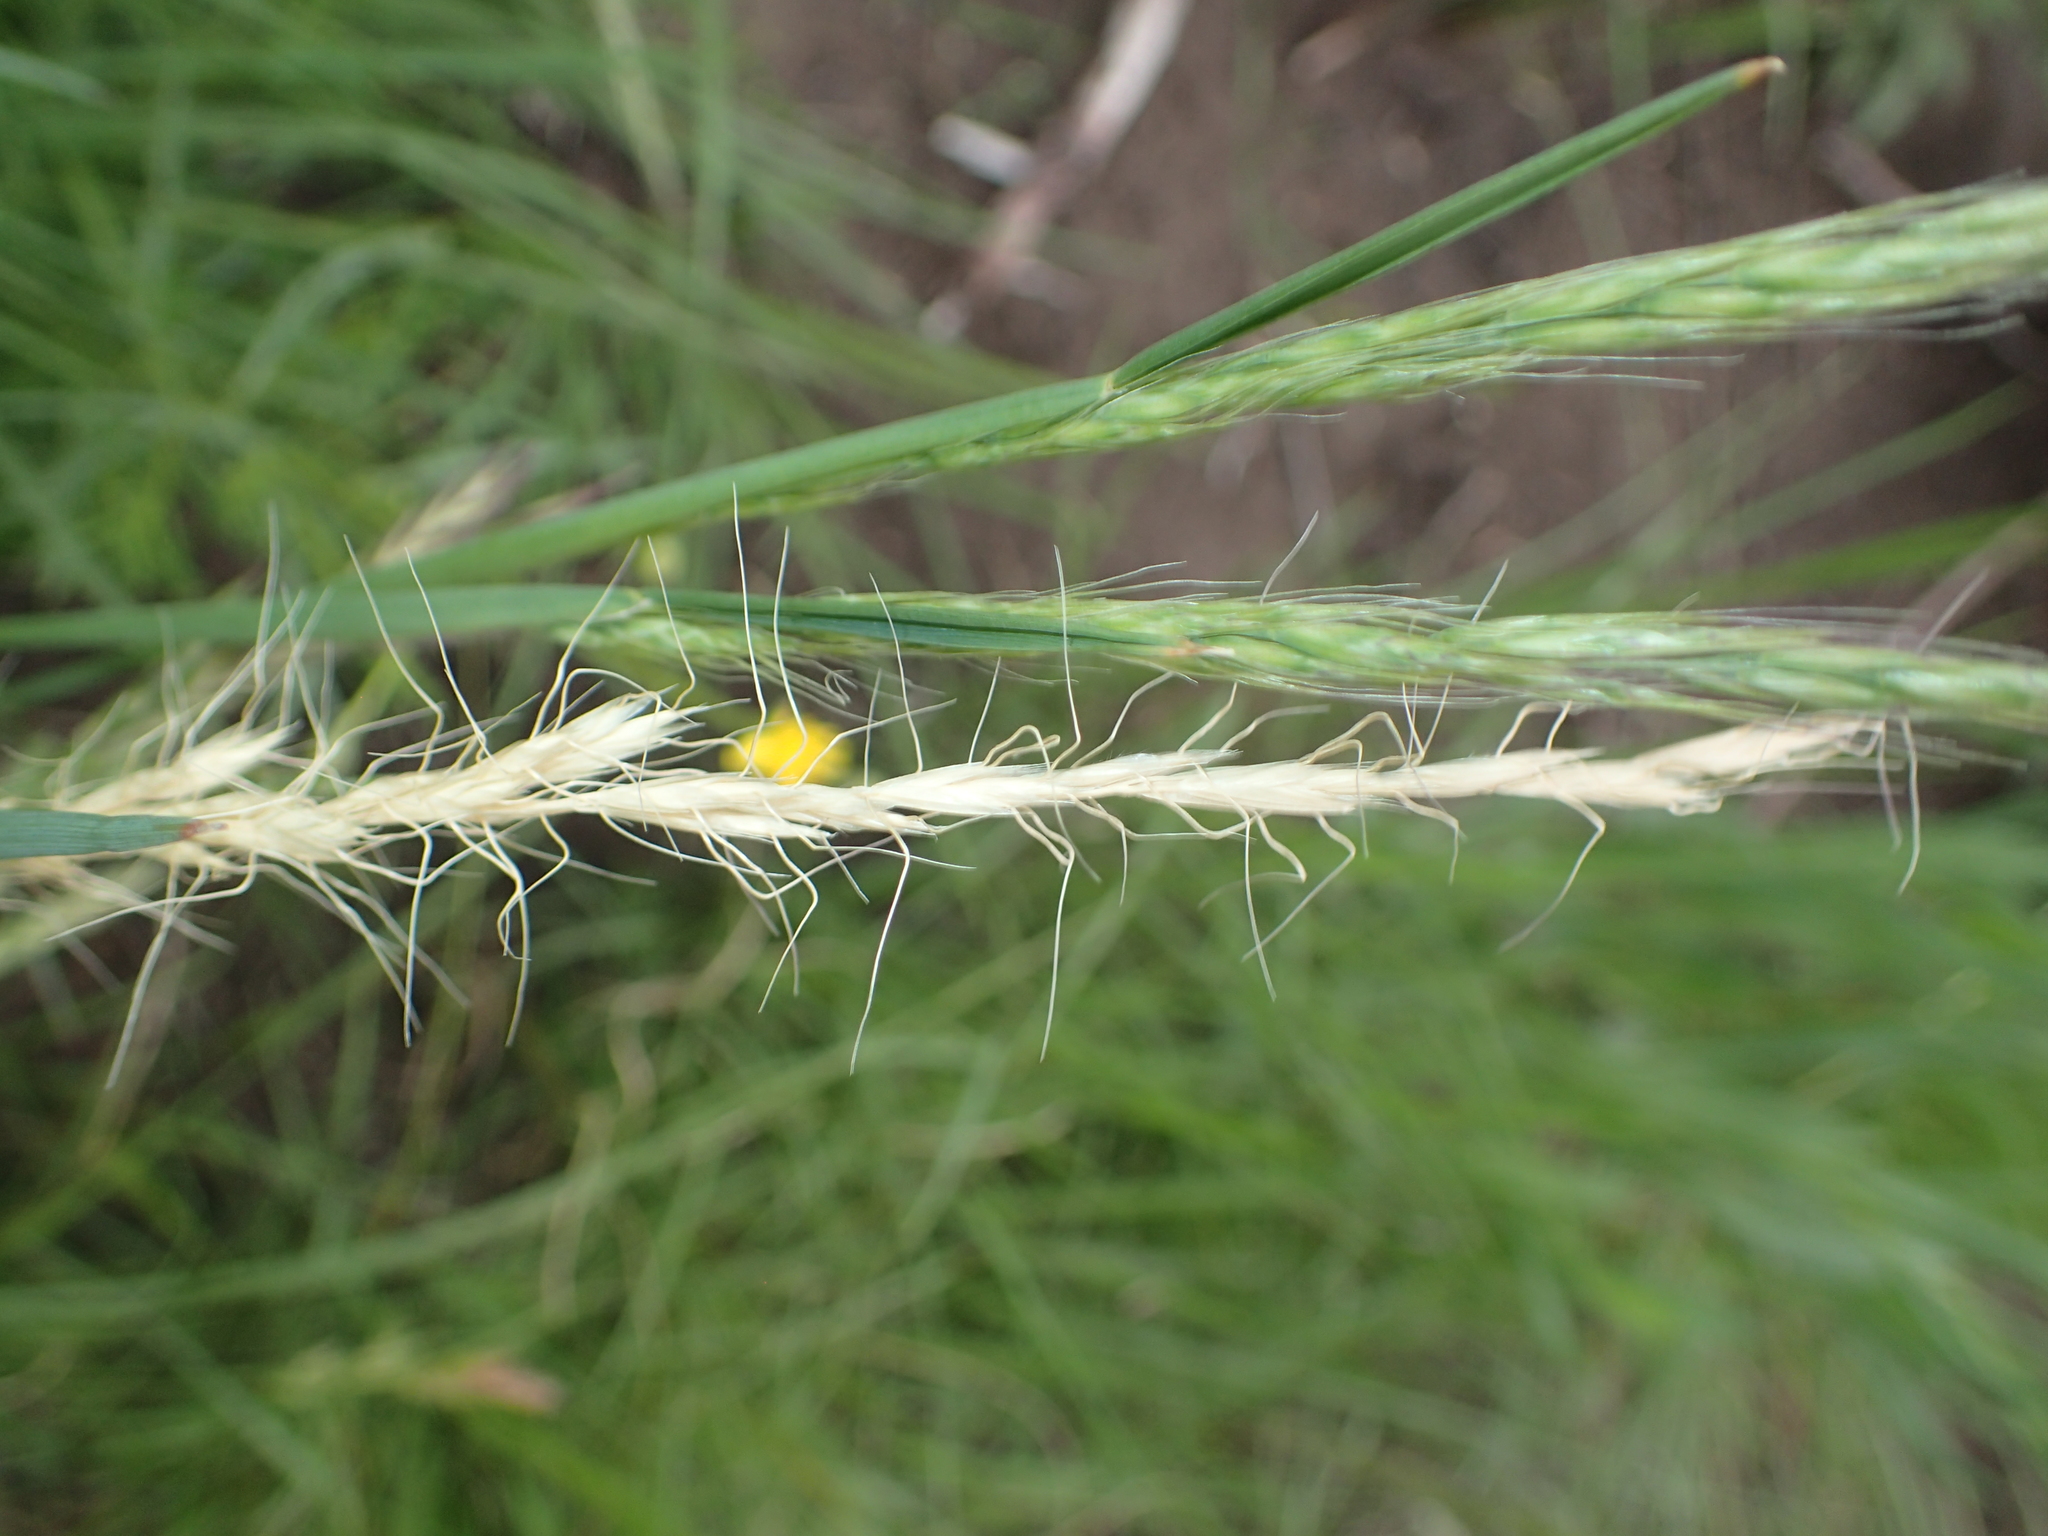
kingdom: Plantae
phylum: Tracheophyta
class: Liliopsida
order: Poales
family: Poaceae
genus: Trisetopsis
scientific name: Trisetopsis imberbis
